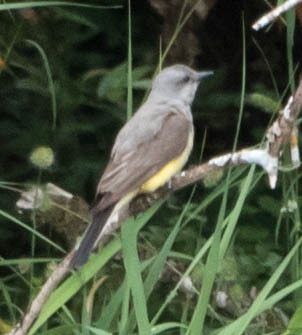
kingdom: Animalia
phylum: Chordata
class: Aves
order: Passeriformes
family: Tyrannidae
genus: Tyrannus
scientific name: Tyrannus verticalis
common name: Western kingbird
